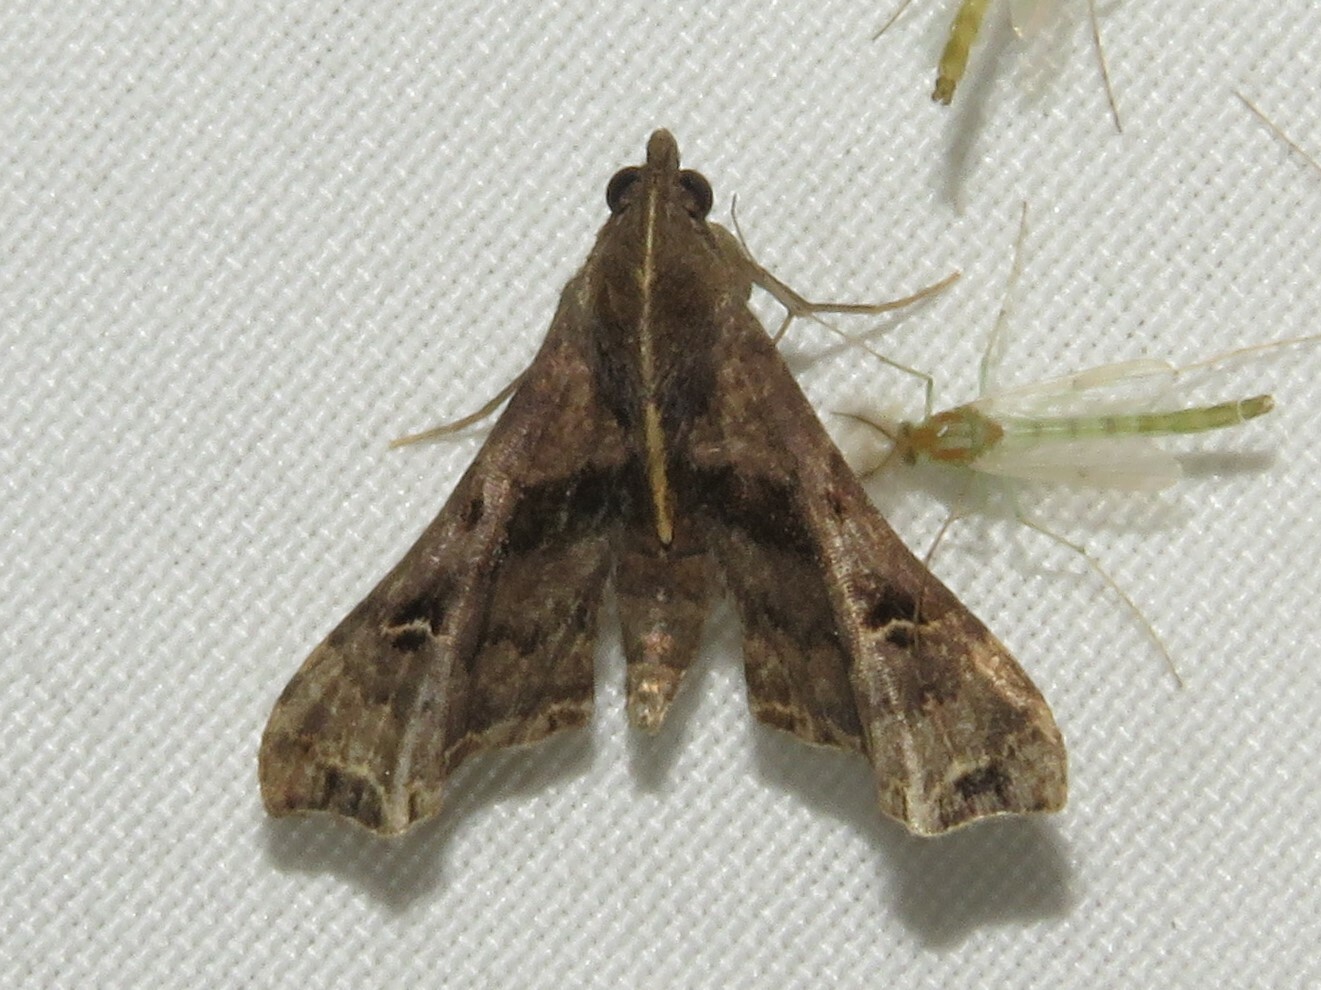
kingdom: Animalia
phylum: Arthropoda
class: Insecta
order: Lepidoptera
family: Erebidae
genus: Palthis
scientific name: Palthis asopialis
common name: Faint-spotted palthis moth
